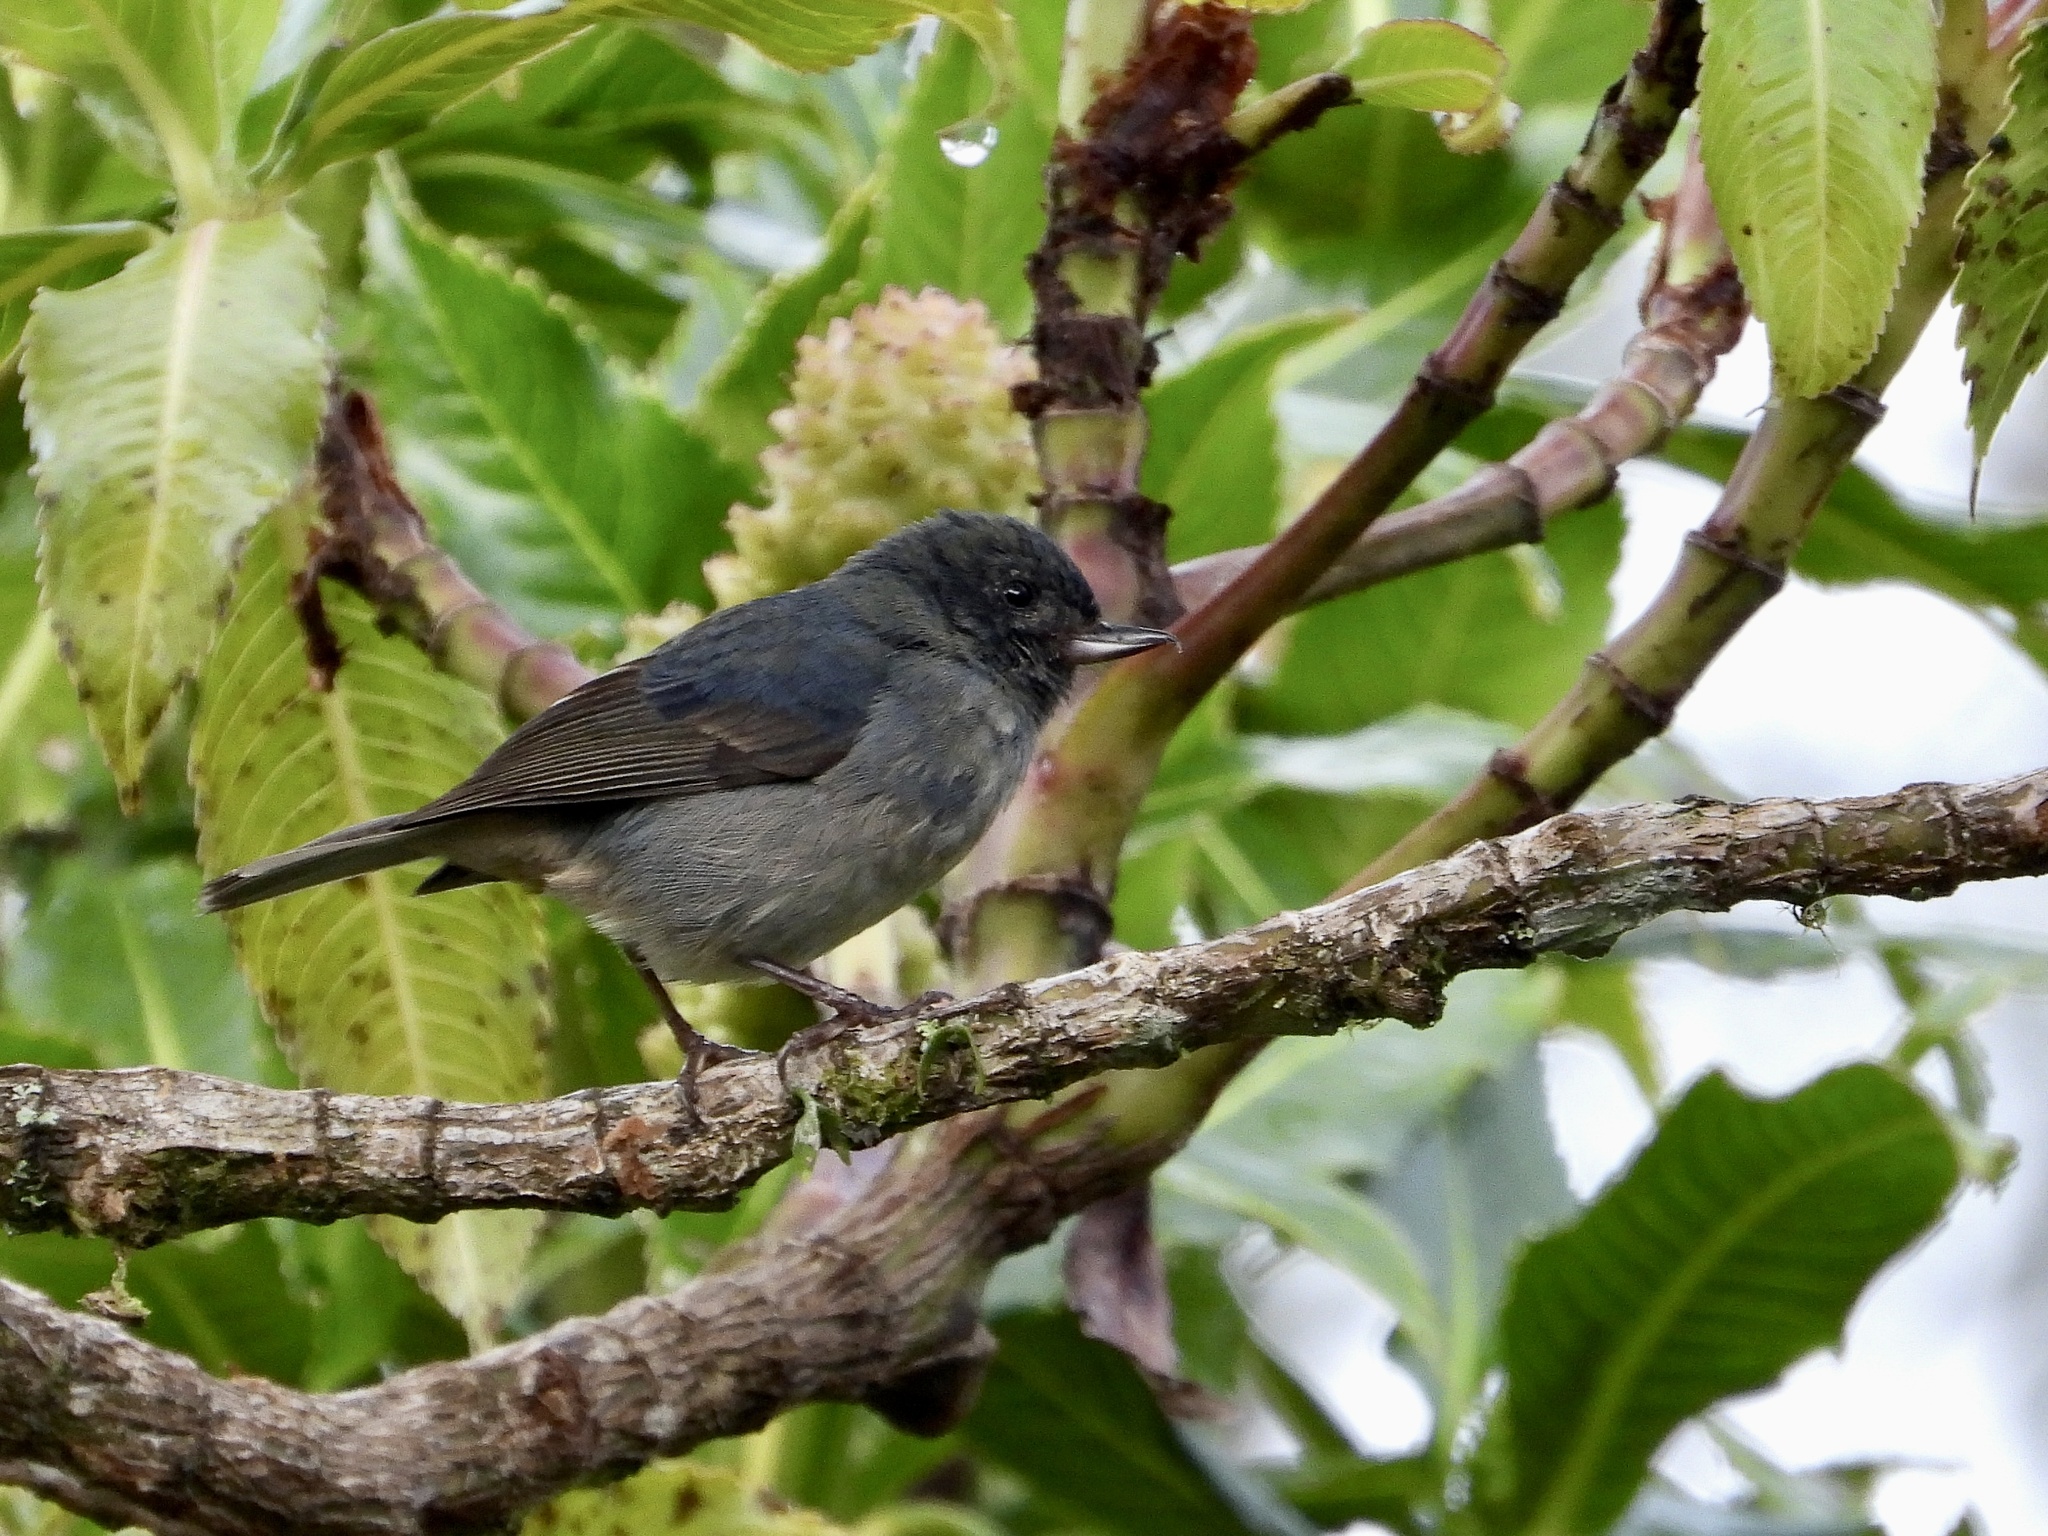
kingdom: Animalia
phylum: Chordata
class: Aves
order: Passeriformes
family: Thraupidae
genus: Diglossa
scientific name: Diglossa plumbea
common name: Slaty flowerpiercer
